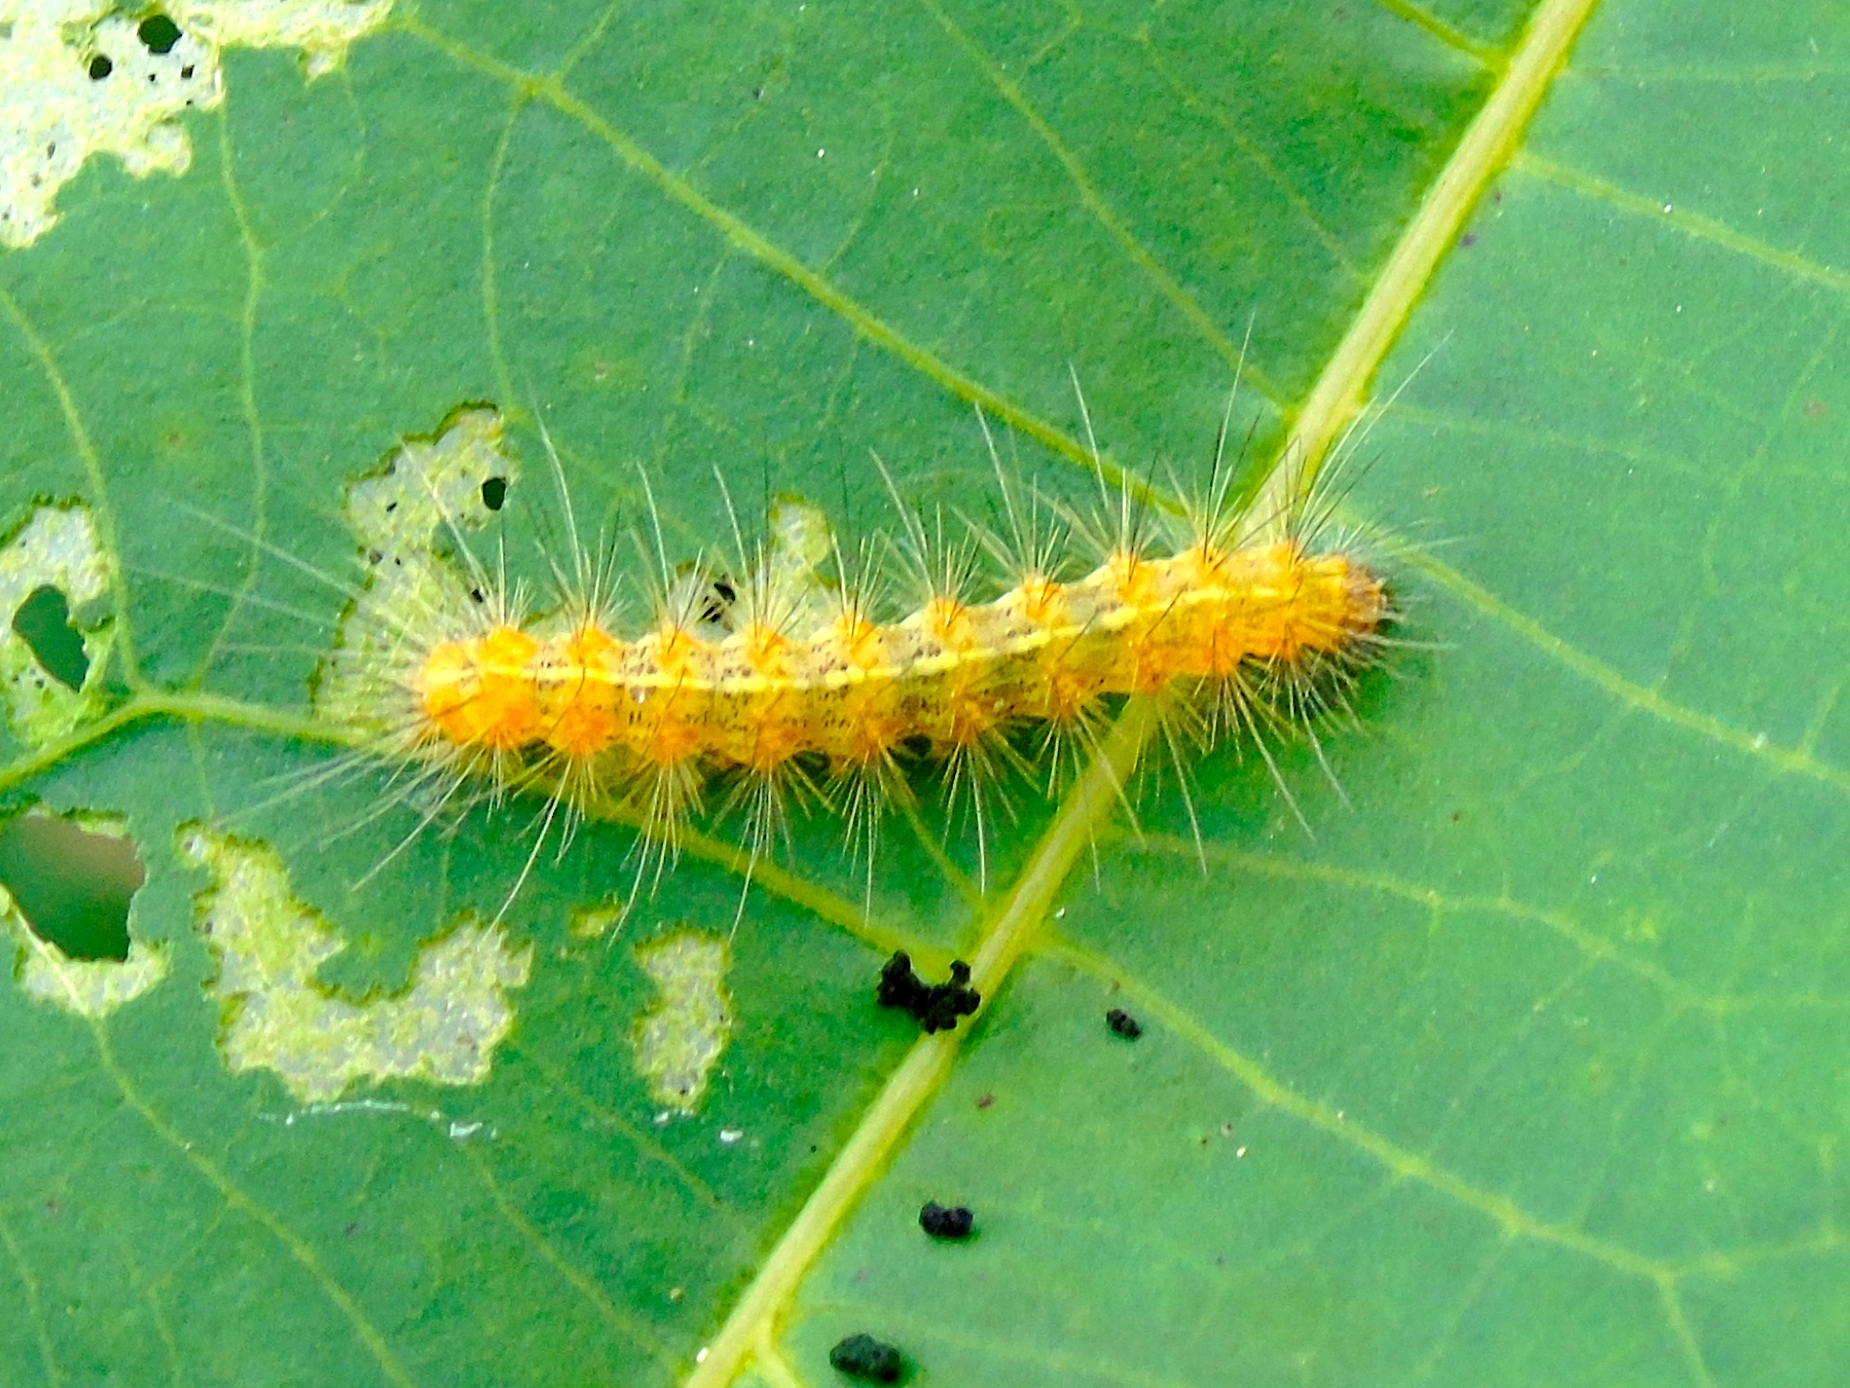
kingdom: Animalia
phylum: Arthropoda
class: Insecta
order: Lepidoptera
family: Erebidae
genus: Spilosoma
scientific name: Spilosoma
